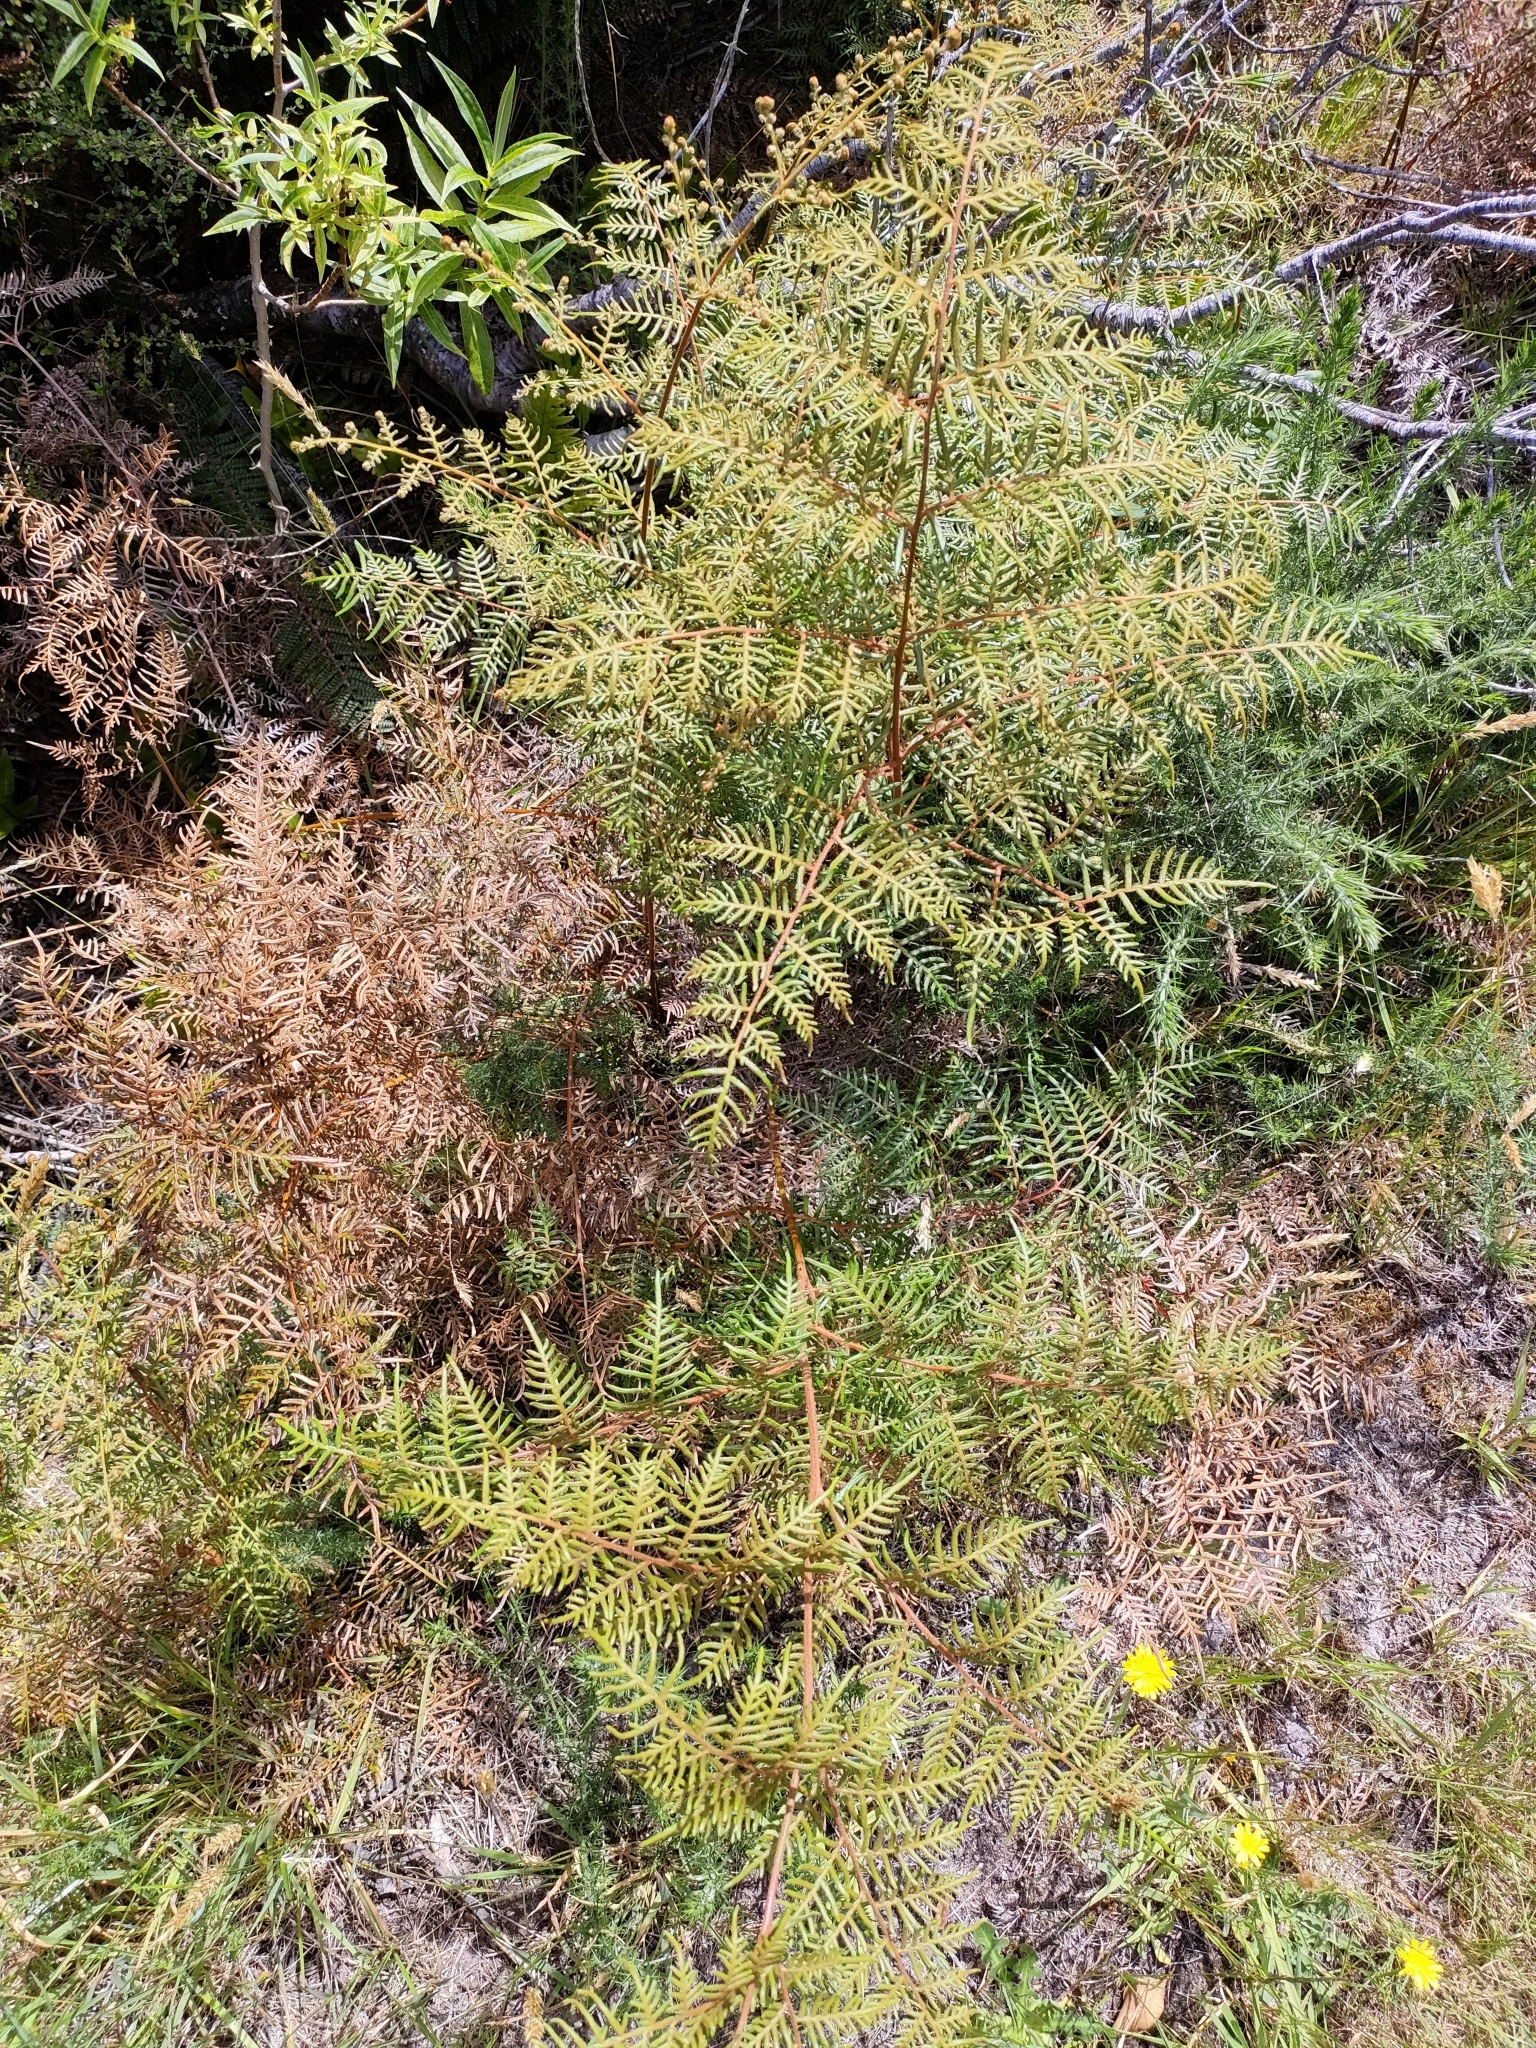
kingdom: Plantae
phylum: Tracheophyta
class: Polypodiopsida
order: Polypodiales
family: Dennstaedtiaceae
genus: Pteridium
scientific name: Pteridium esculentum
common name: Bracken fern
